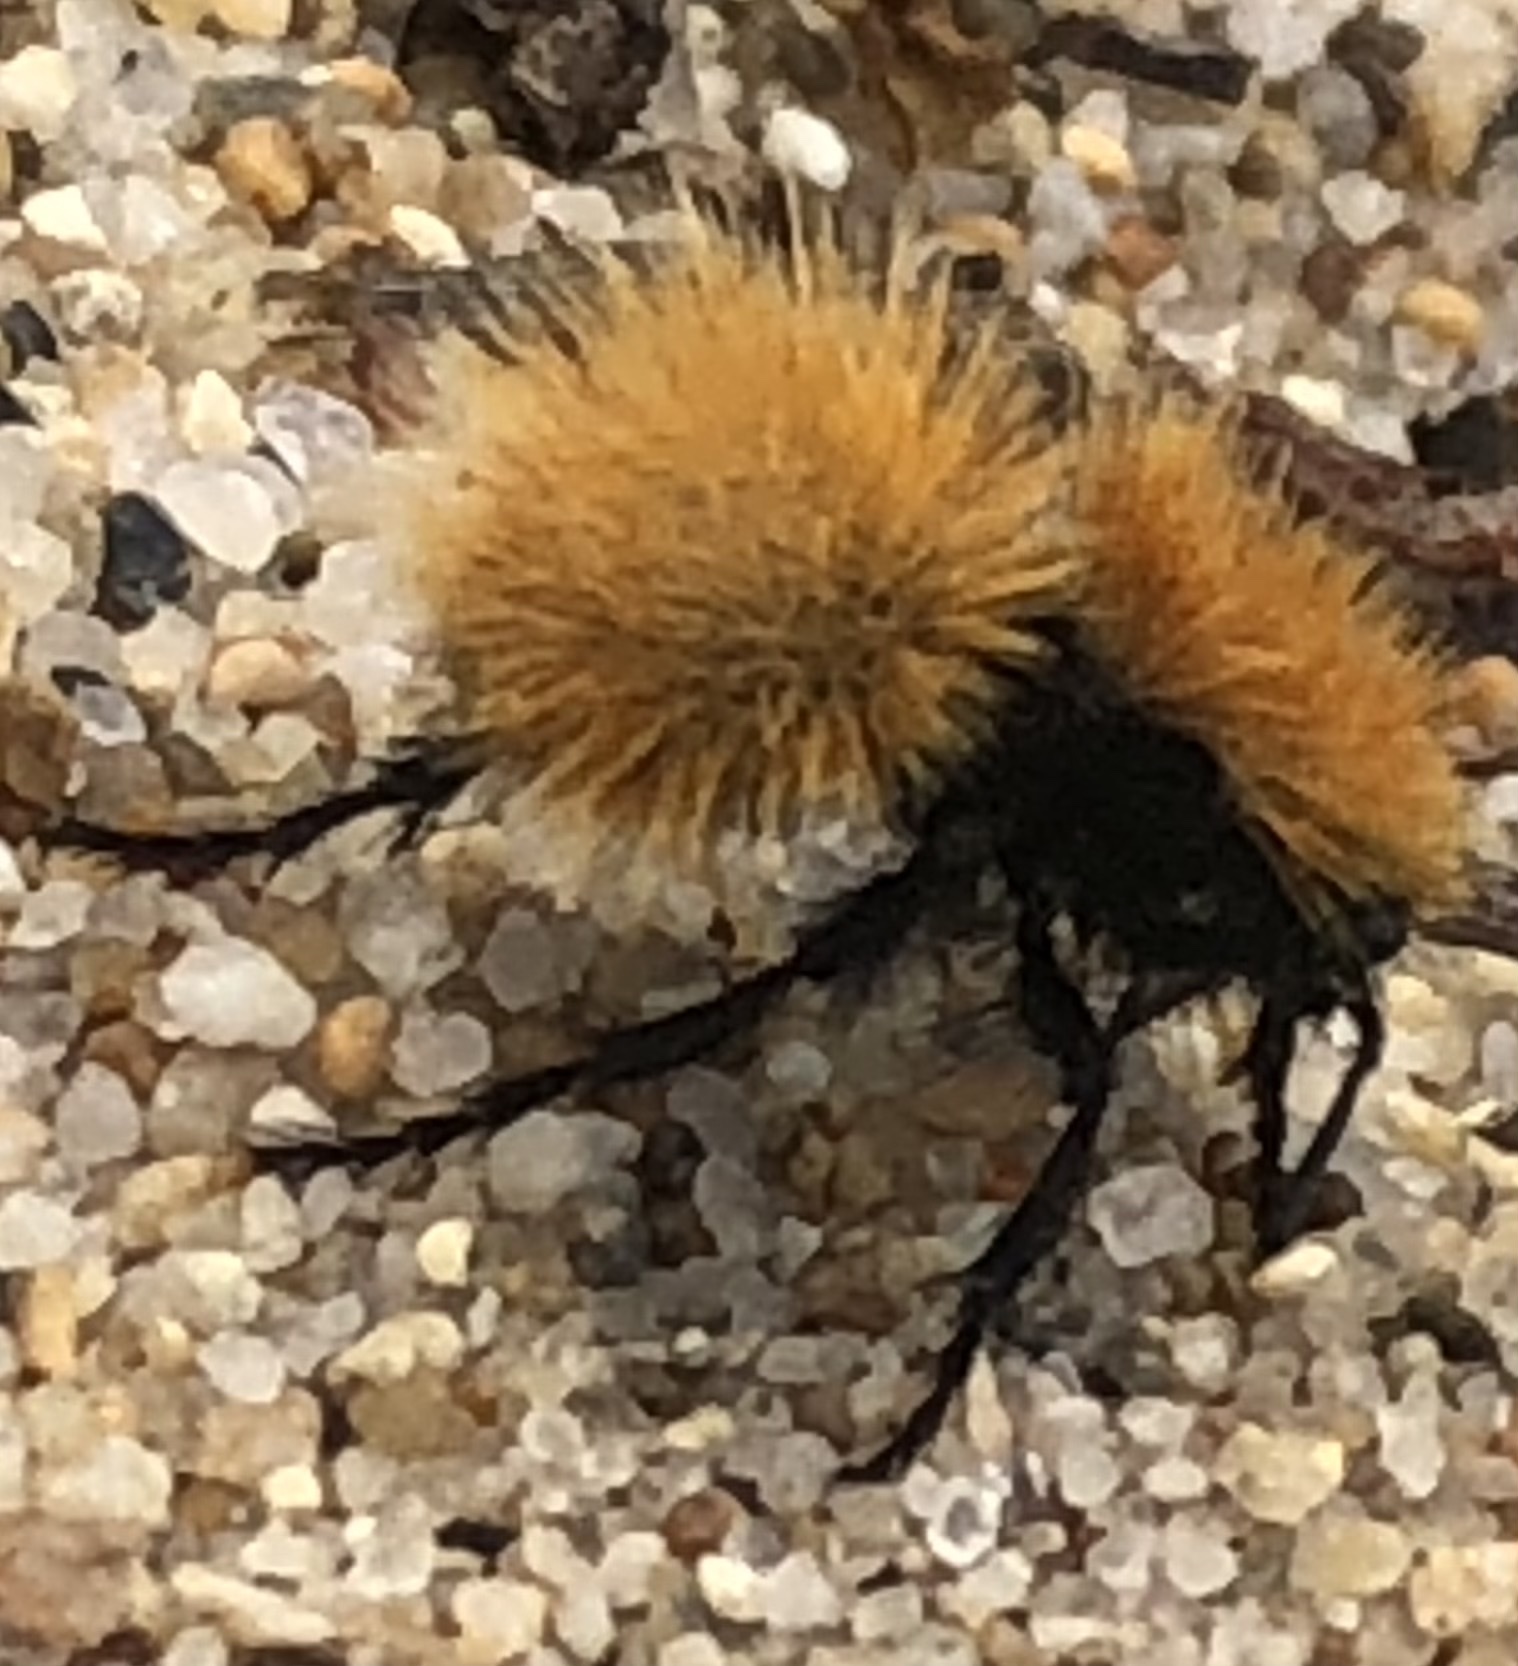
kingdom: Animalia
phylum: Arthropoda
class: Insecta
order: Hymenoptera
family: Mutillidae
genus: Dasymutilla
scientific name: Dasymutilla
